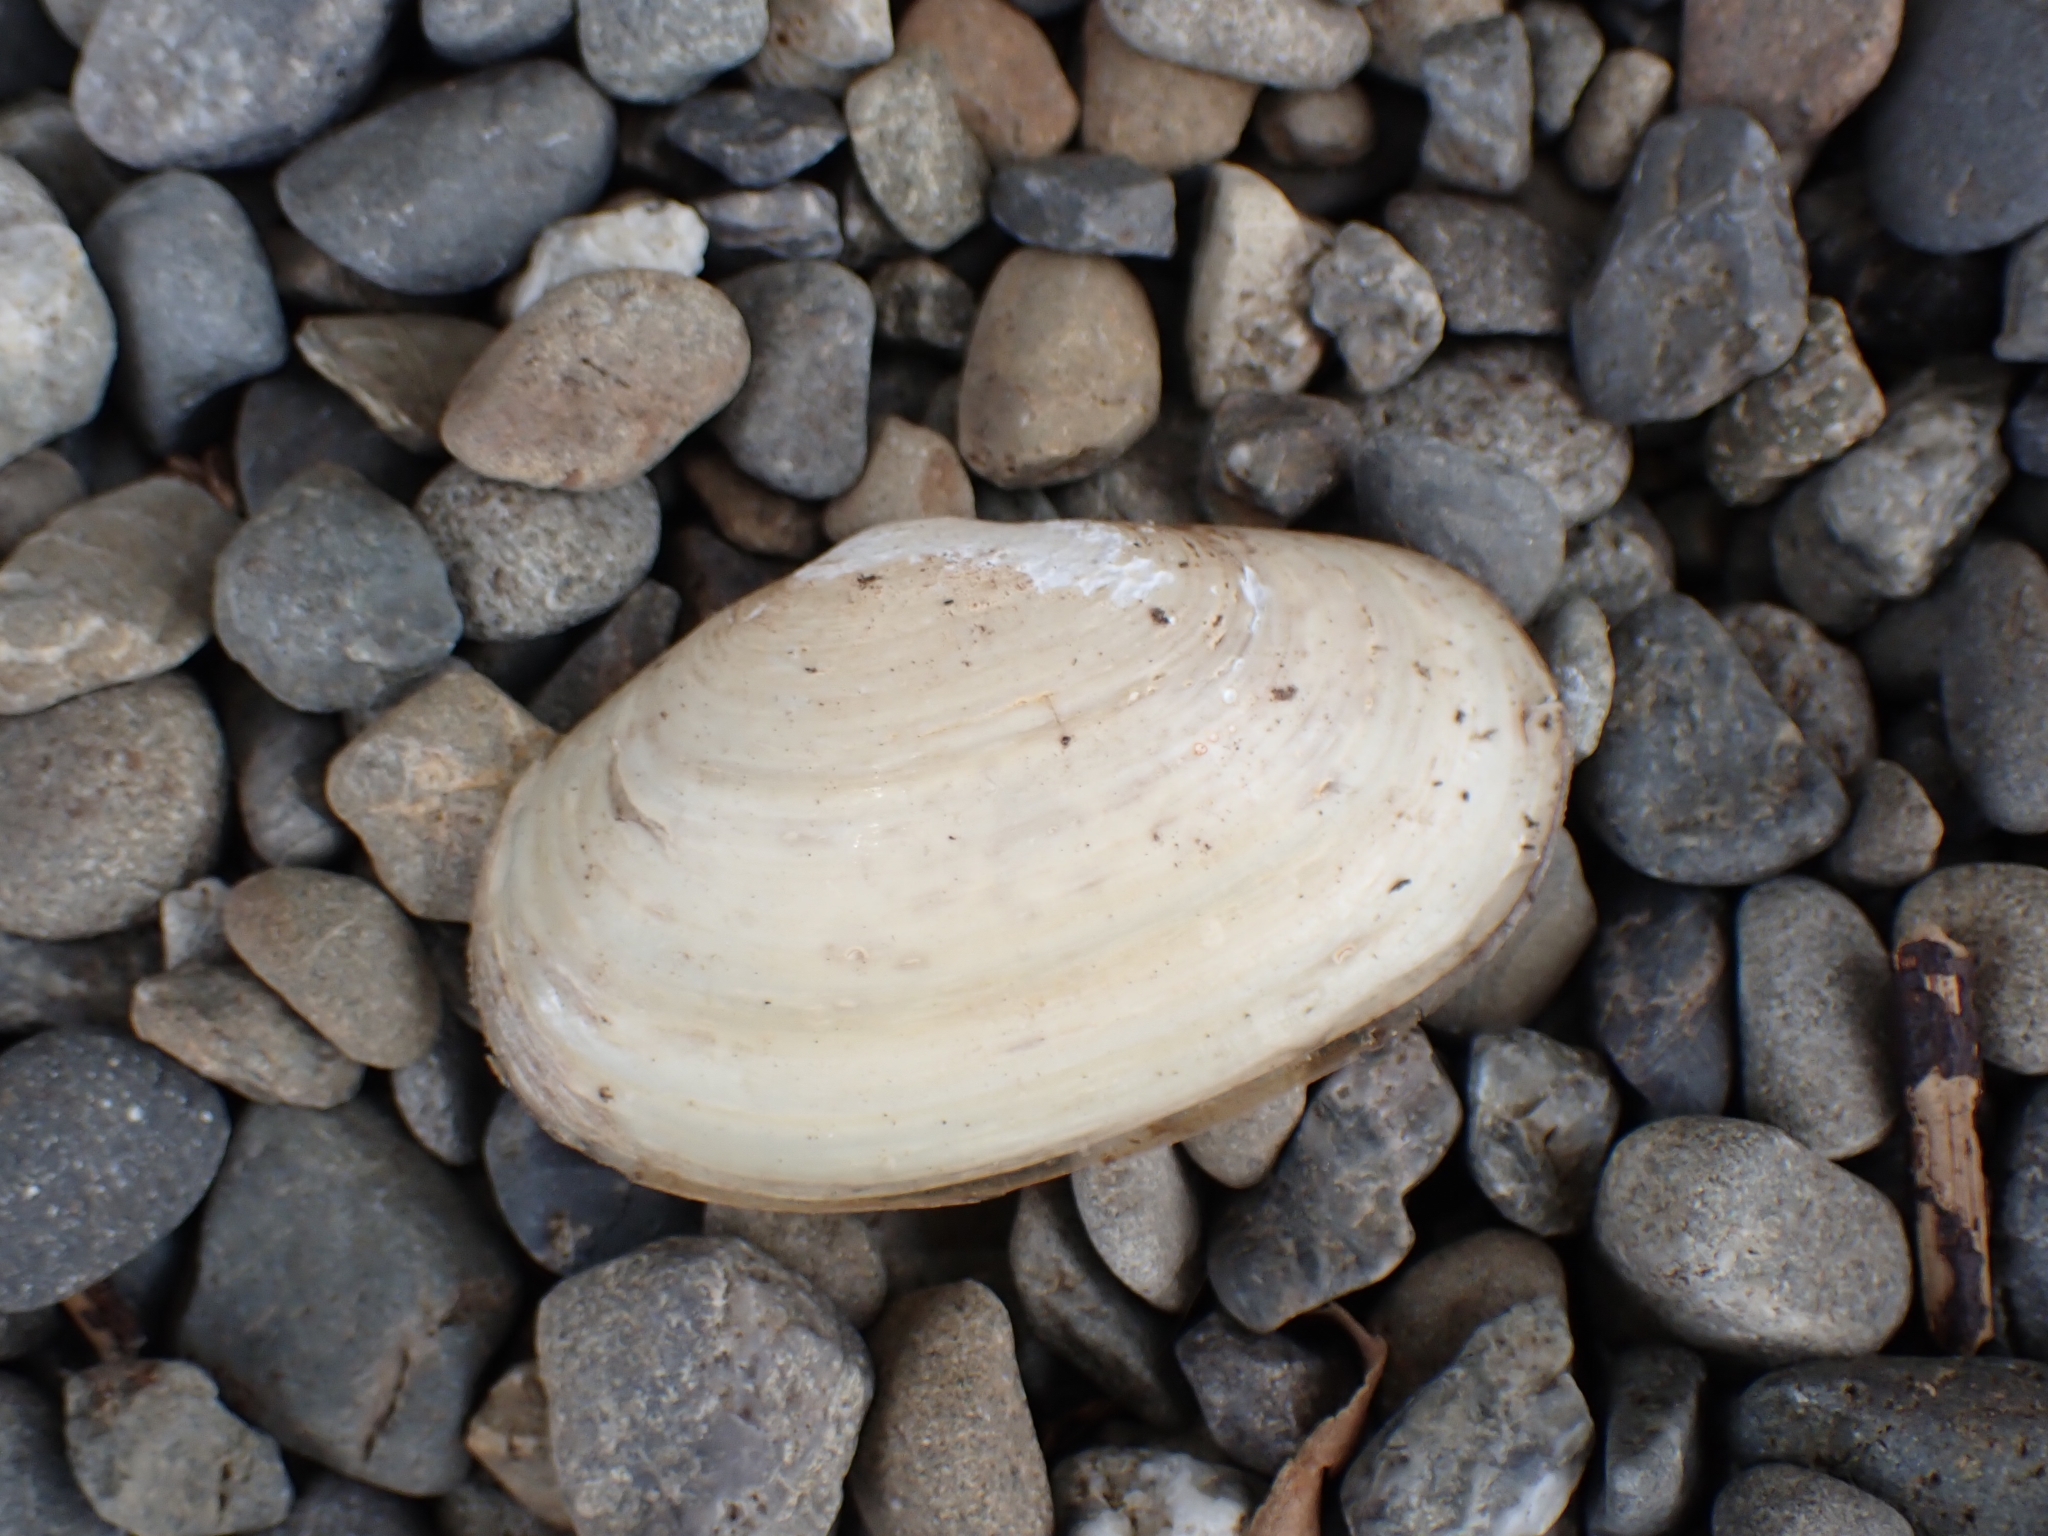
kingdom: Animalia
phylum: Mollusca
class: Bivalvia
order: Venerida
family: Mesodesmatidae
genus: Paphies
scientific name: Paphies australis
